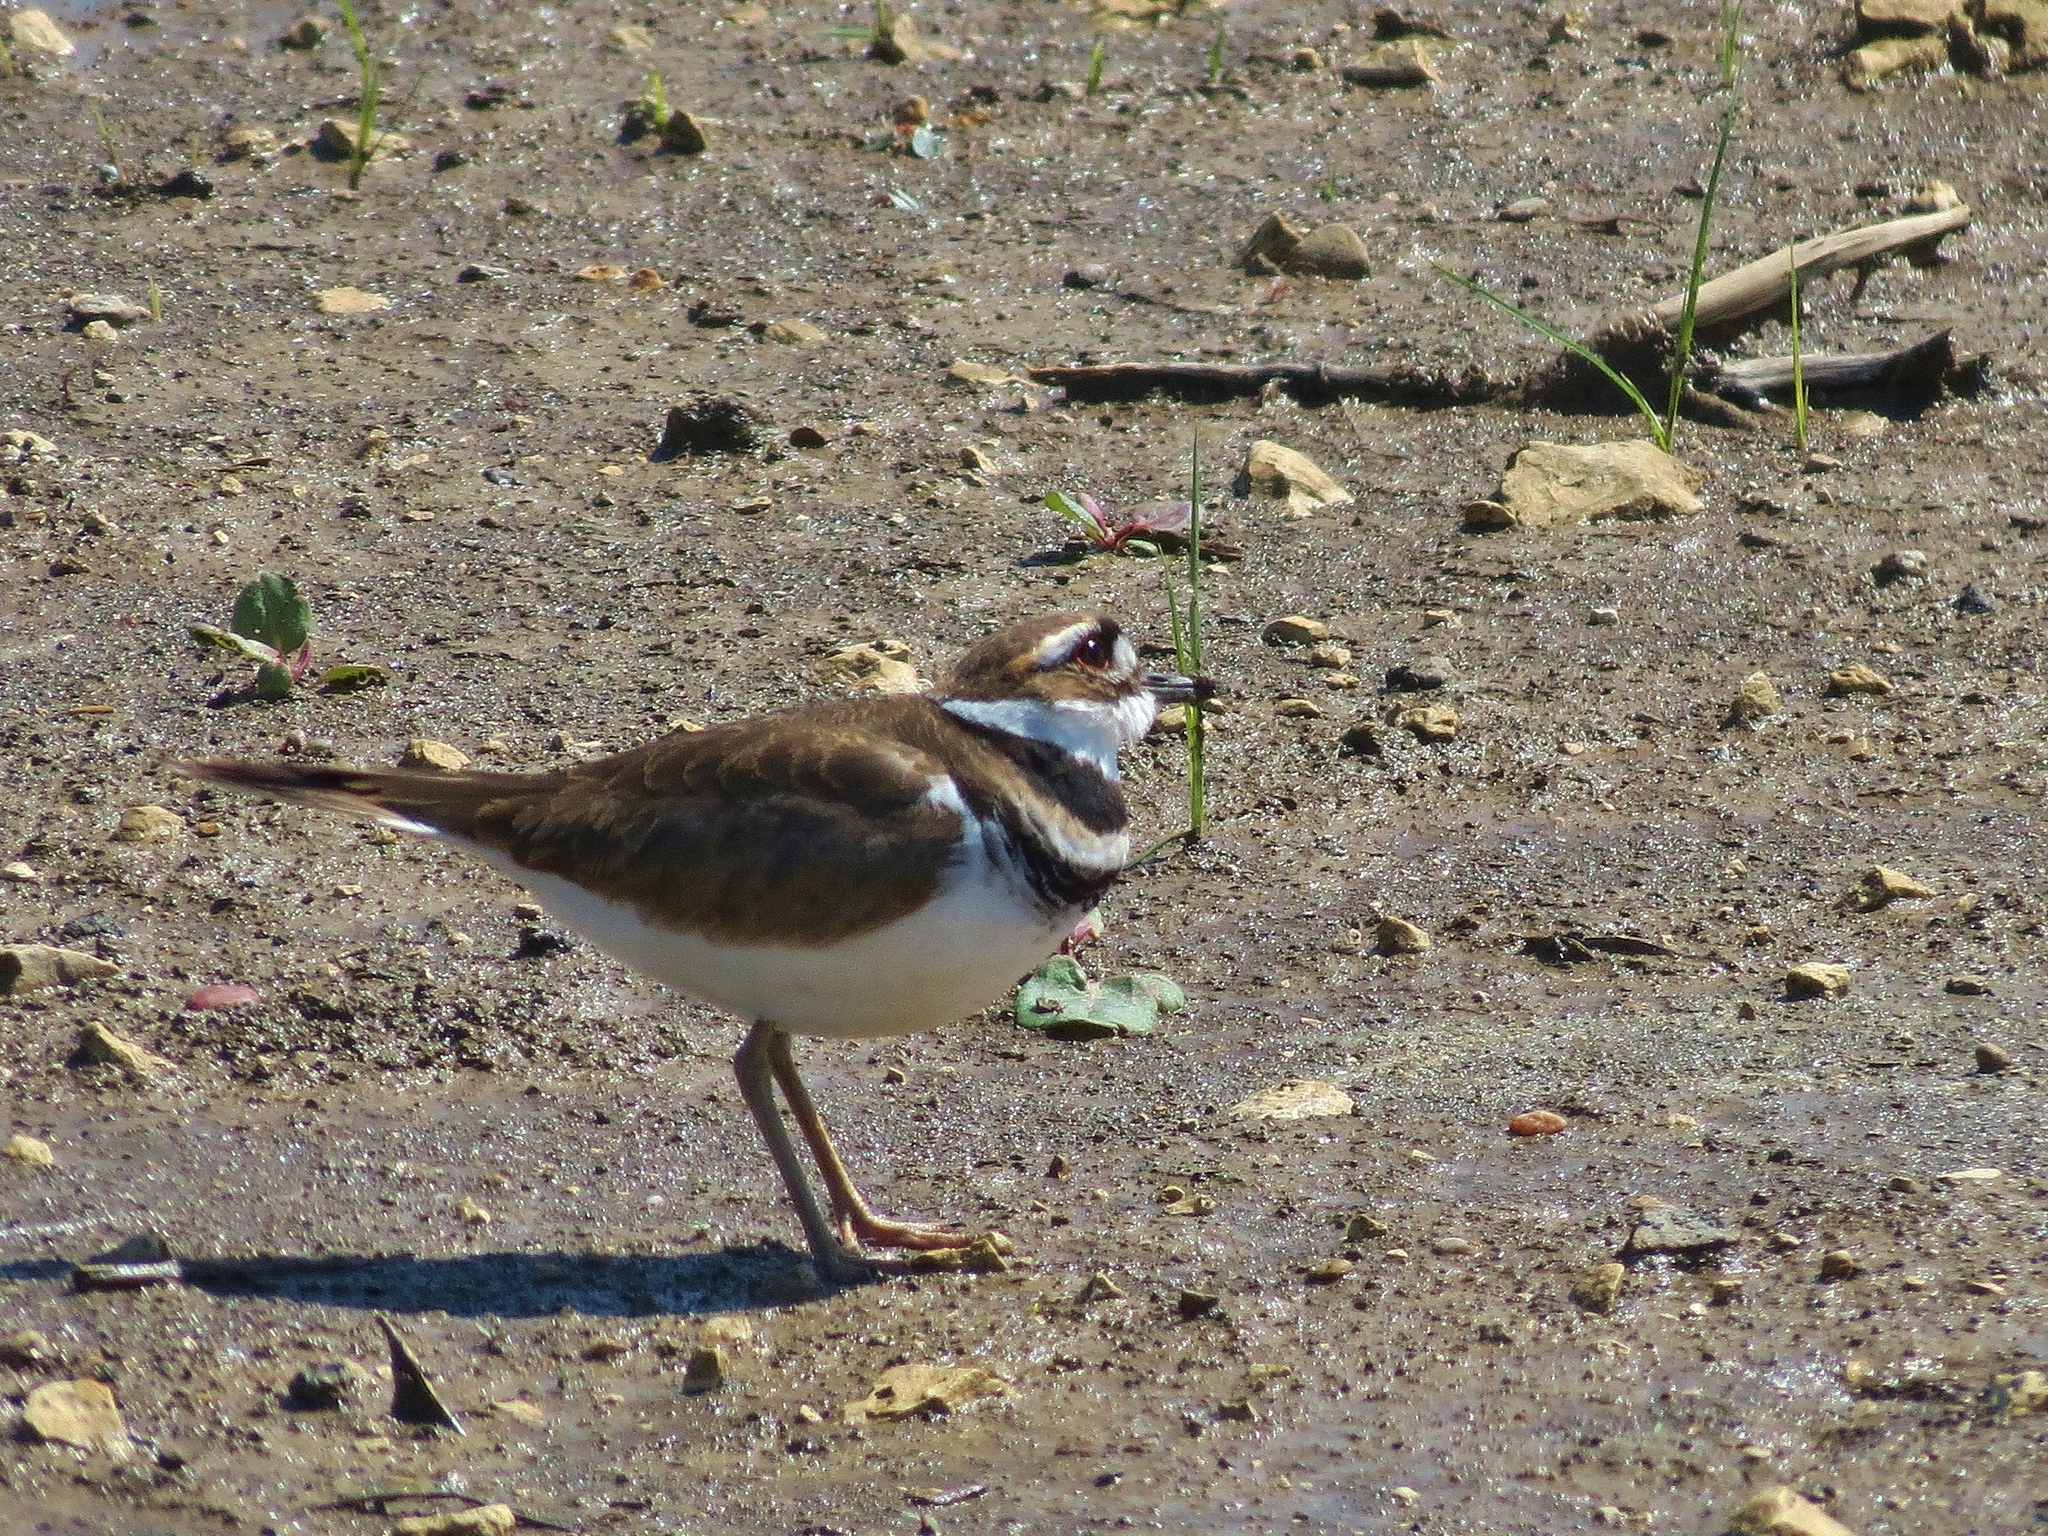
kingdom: Animalia
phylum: Chordata
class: Aves
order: Charadriiformes
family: Charadriidae
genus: Charadrius
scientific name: Charadrius vociferus
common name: Killdeer
